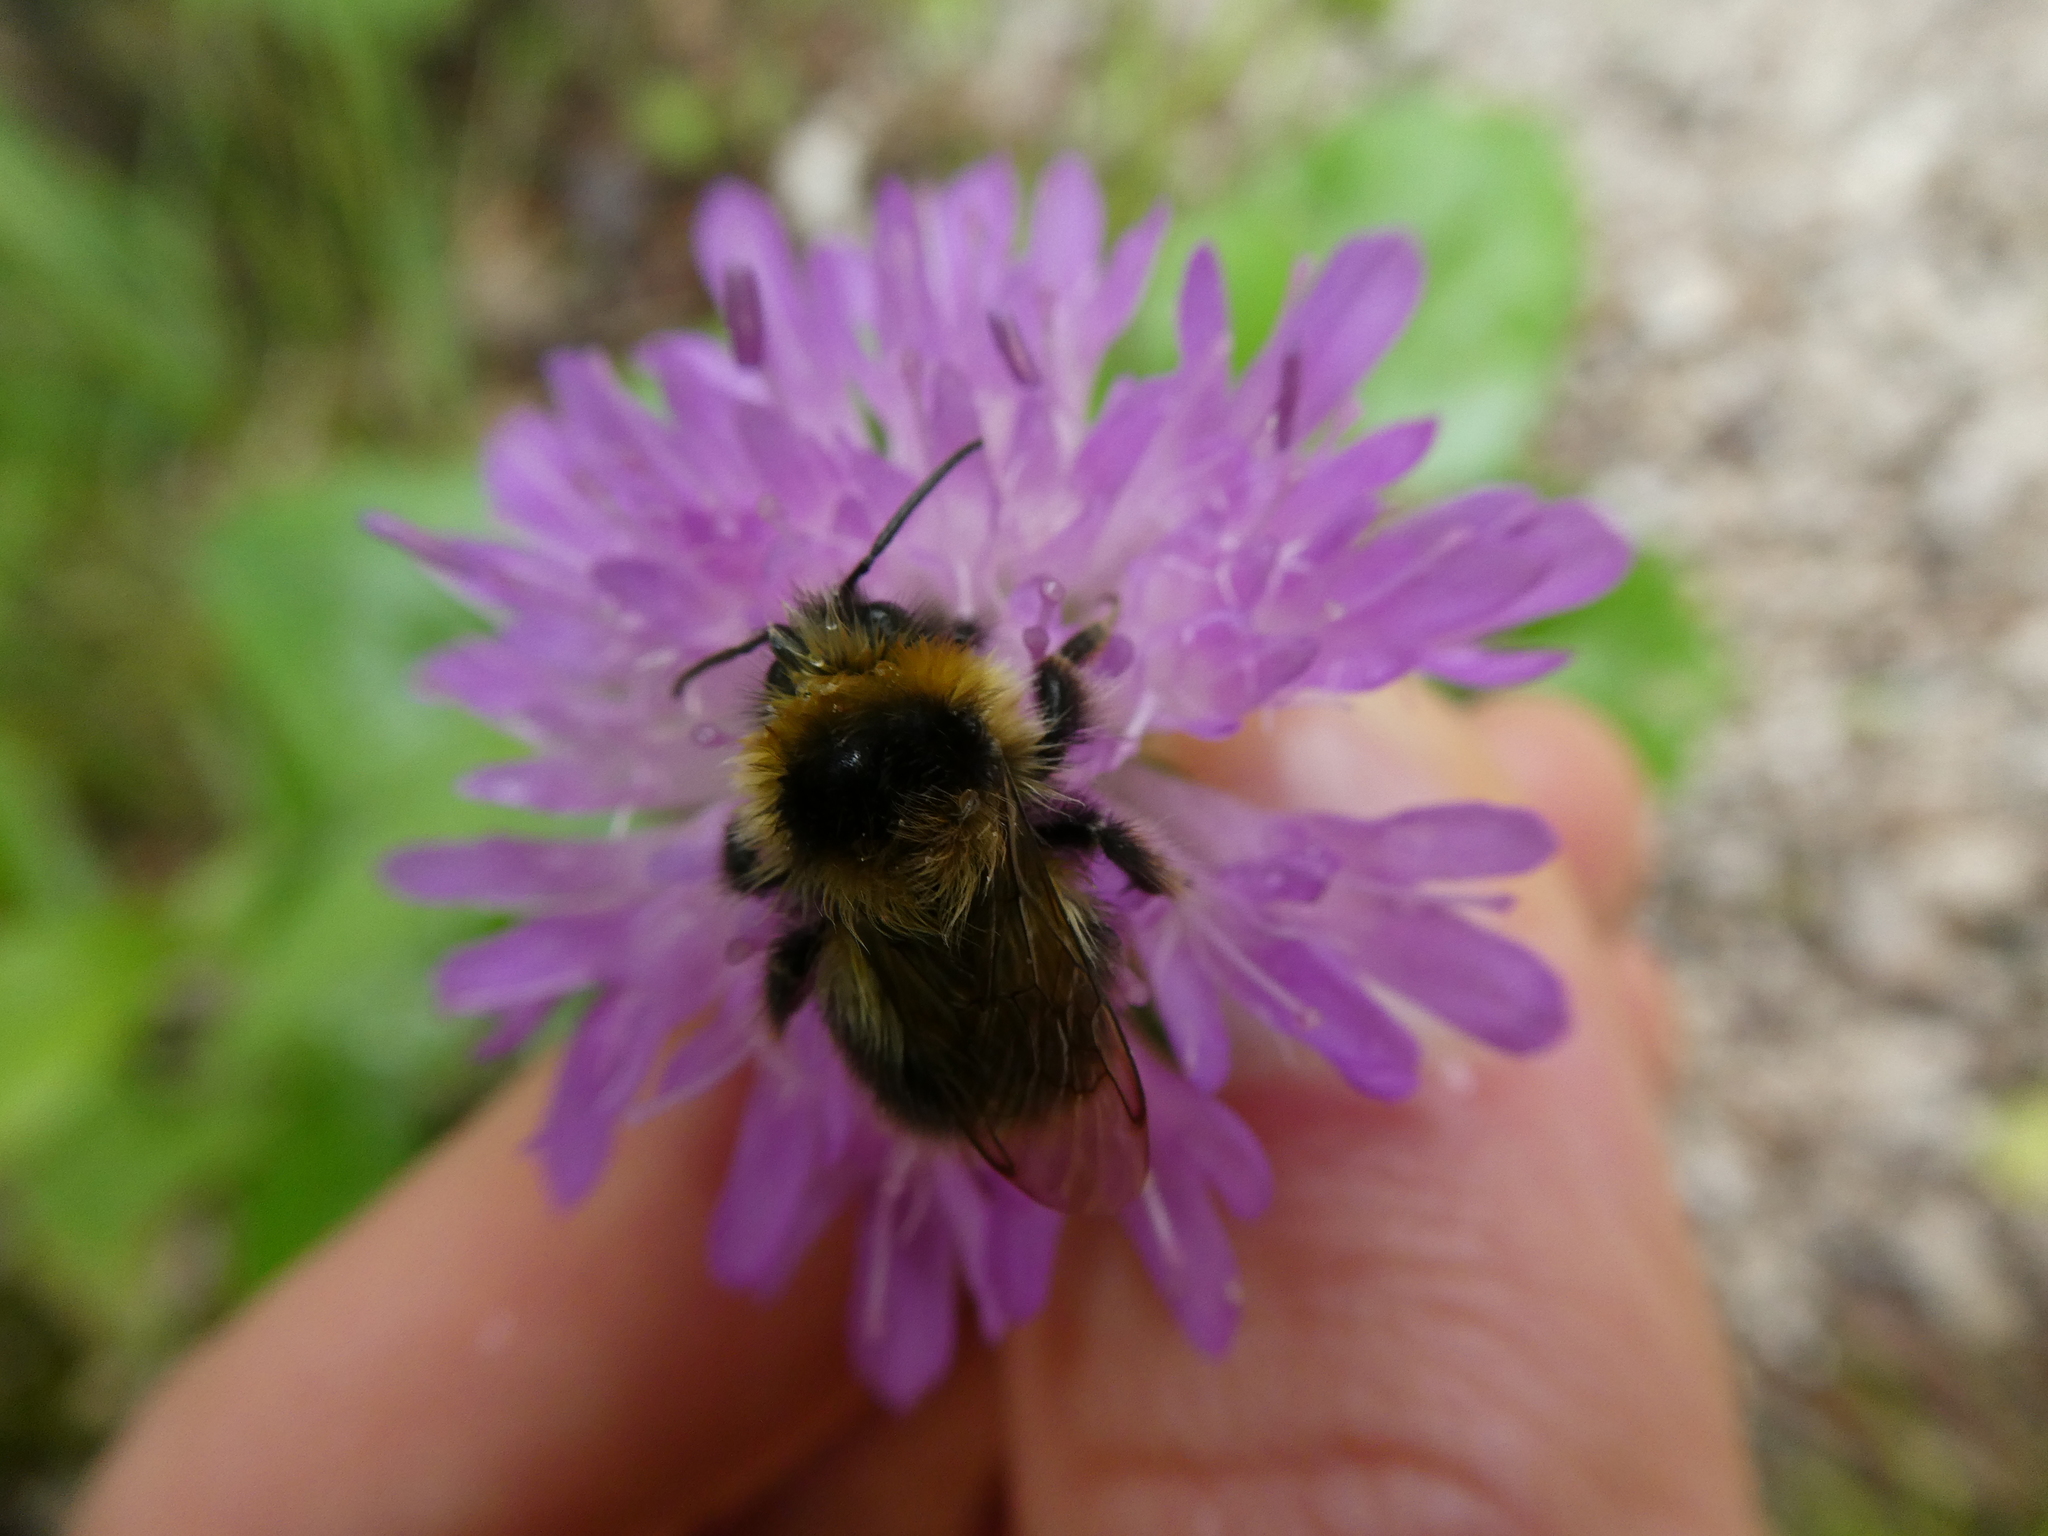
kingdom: Animalia
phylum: Arthropoda
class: Insecta
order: Hymenoptera
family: Apidae
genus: Bombus
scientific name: Bombus jonellus
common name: Heath humble-bee
